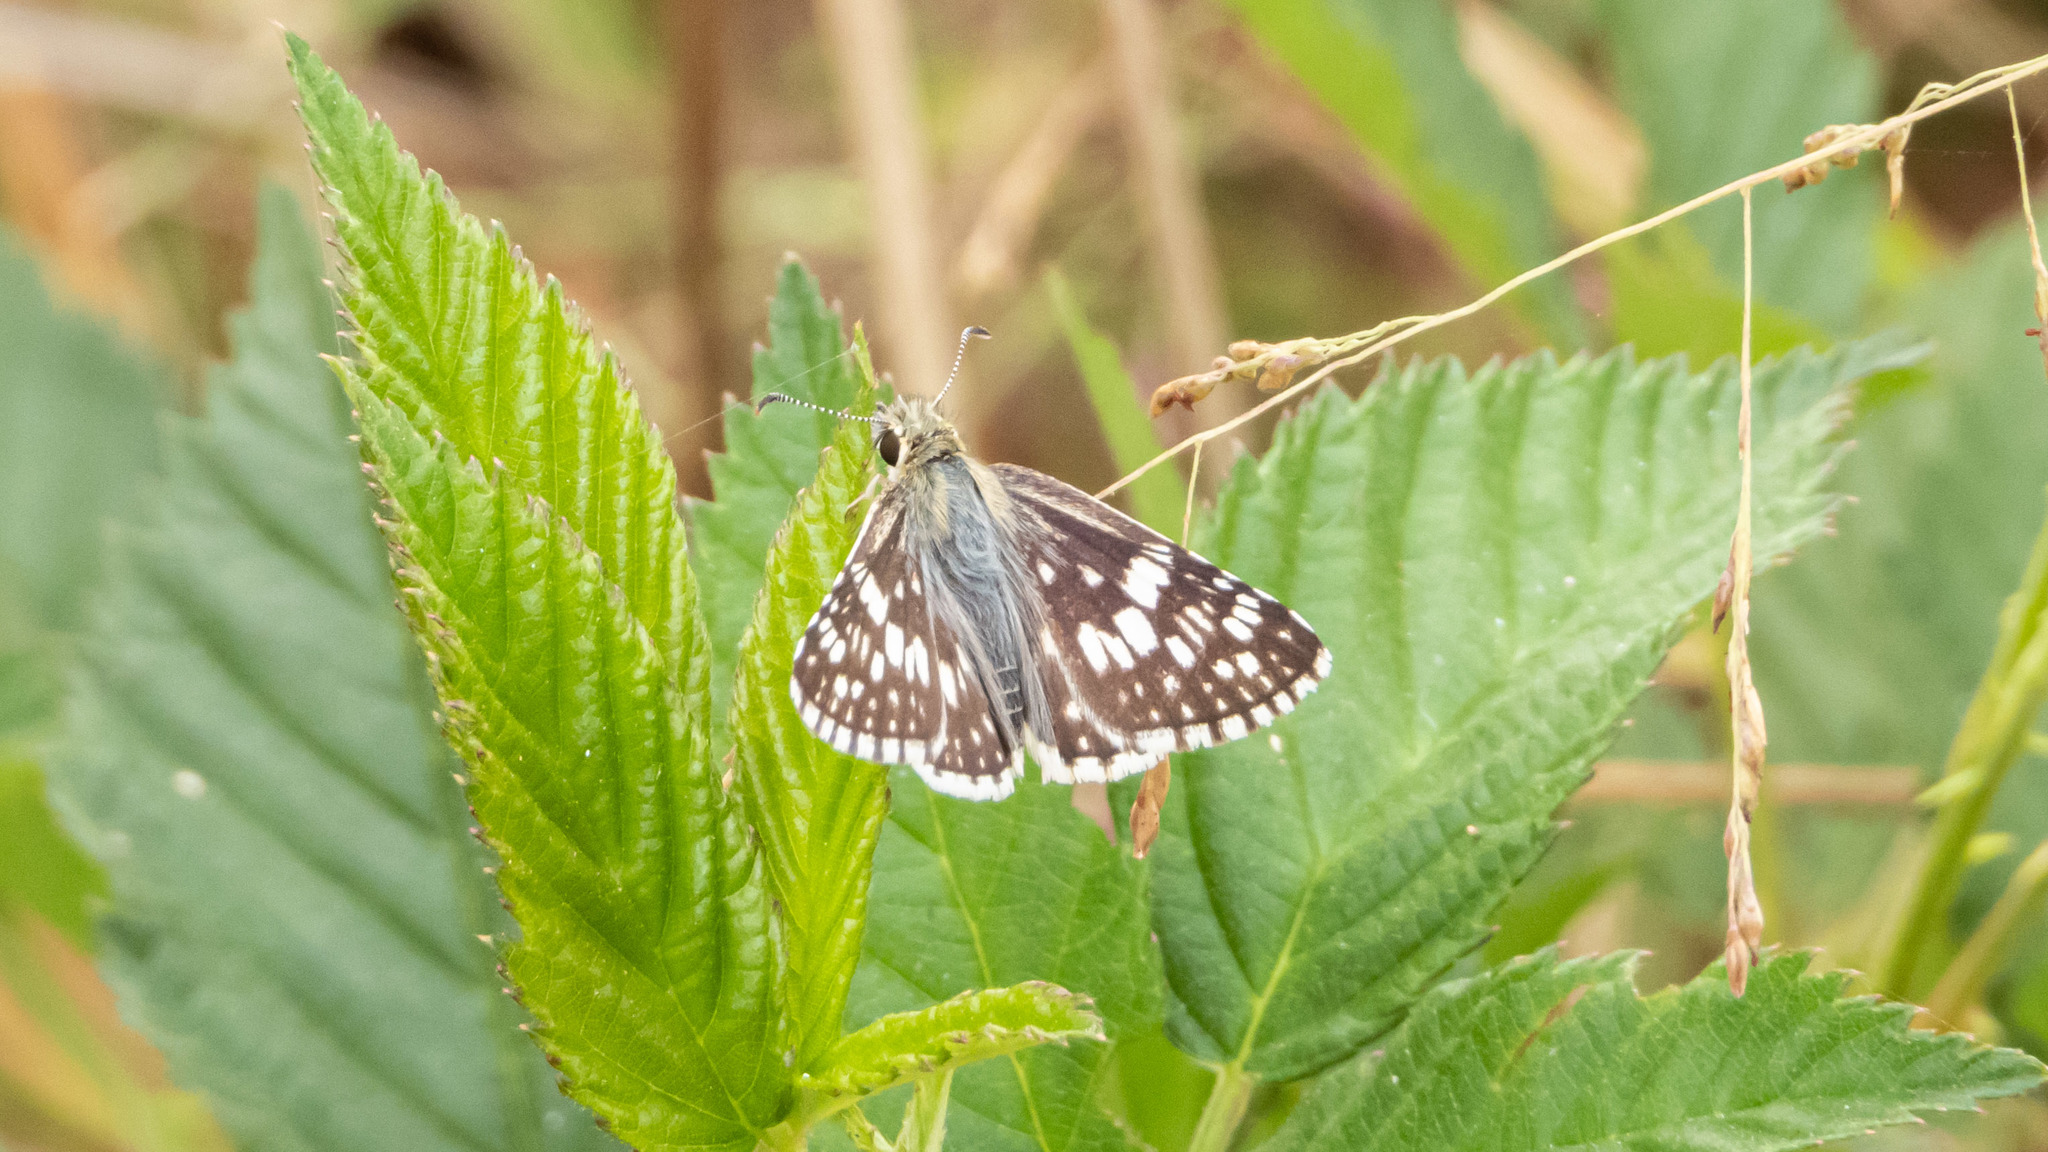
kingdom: Animalia
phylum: Arthropoda
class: Insecta
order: Lepidoptera
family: Hesperiidae
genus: Burnsius
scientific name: Burnsius communis
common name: Common checkered-skipper
